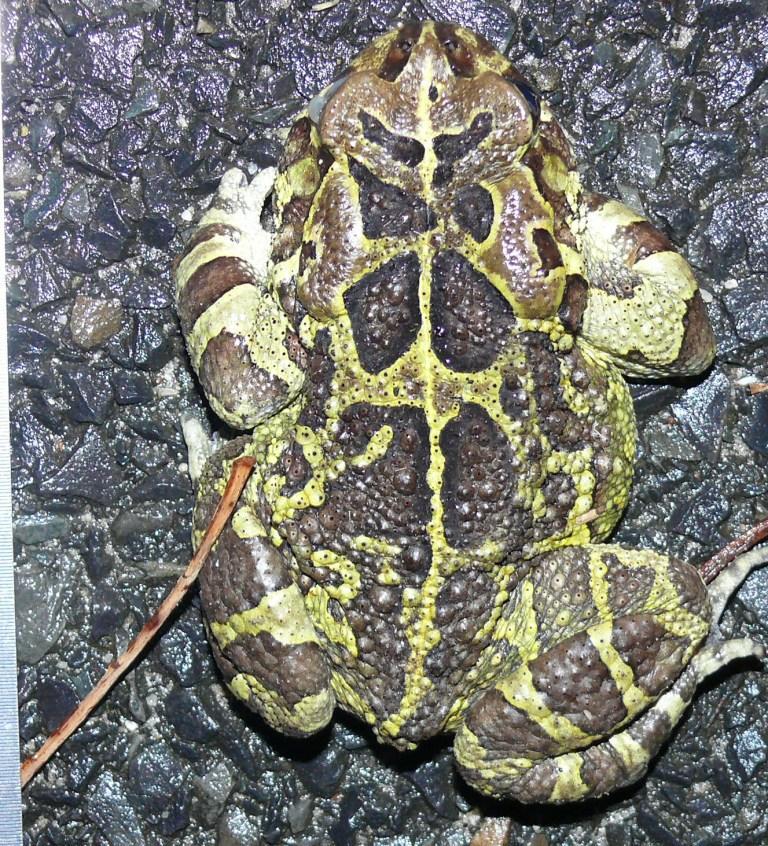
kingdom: Animalia
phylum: Chordata
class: Amphibia
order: Anura
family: Bufonidae
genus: Sclerophrys
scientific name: Sclerophrys pantherina
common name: Panther toad
